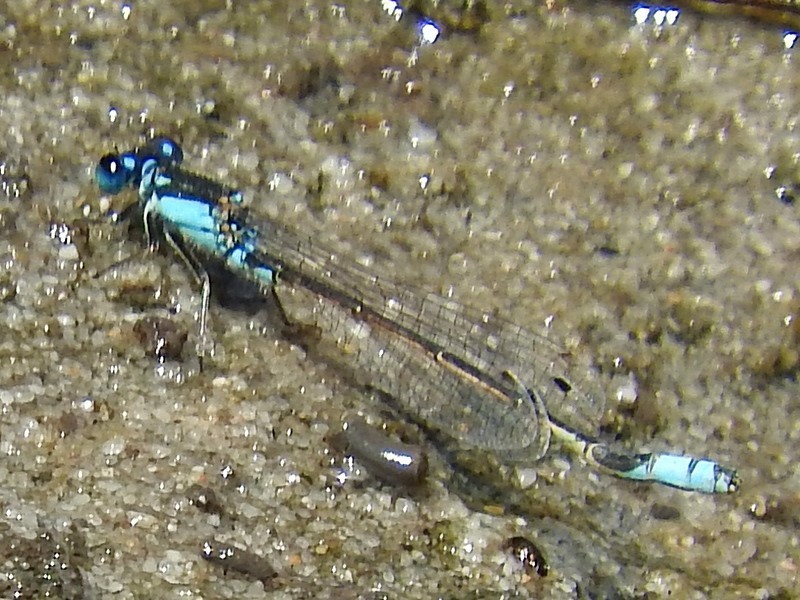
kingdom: Animalia
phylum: Arthropoda
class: Insecta
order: Odonata
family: Coenagrionidae
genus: Ischnura
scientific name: Ischnura heterosticta
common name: Common bluetail
